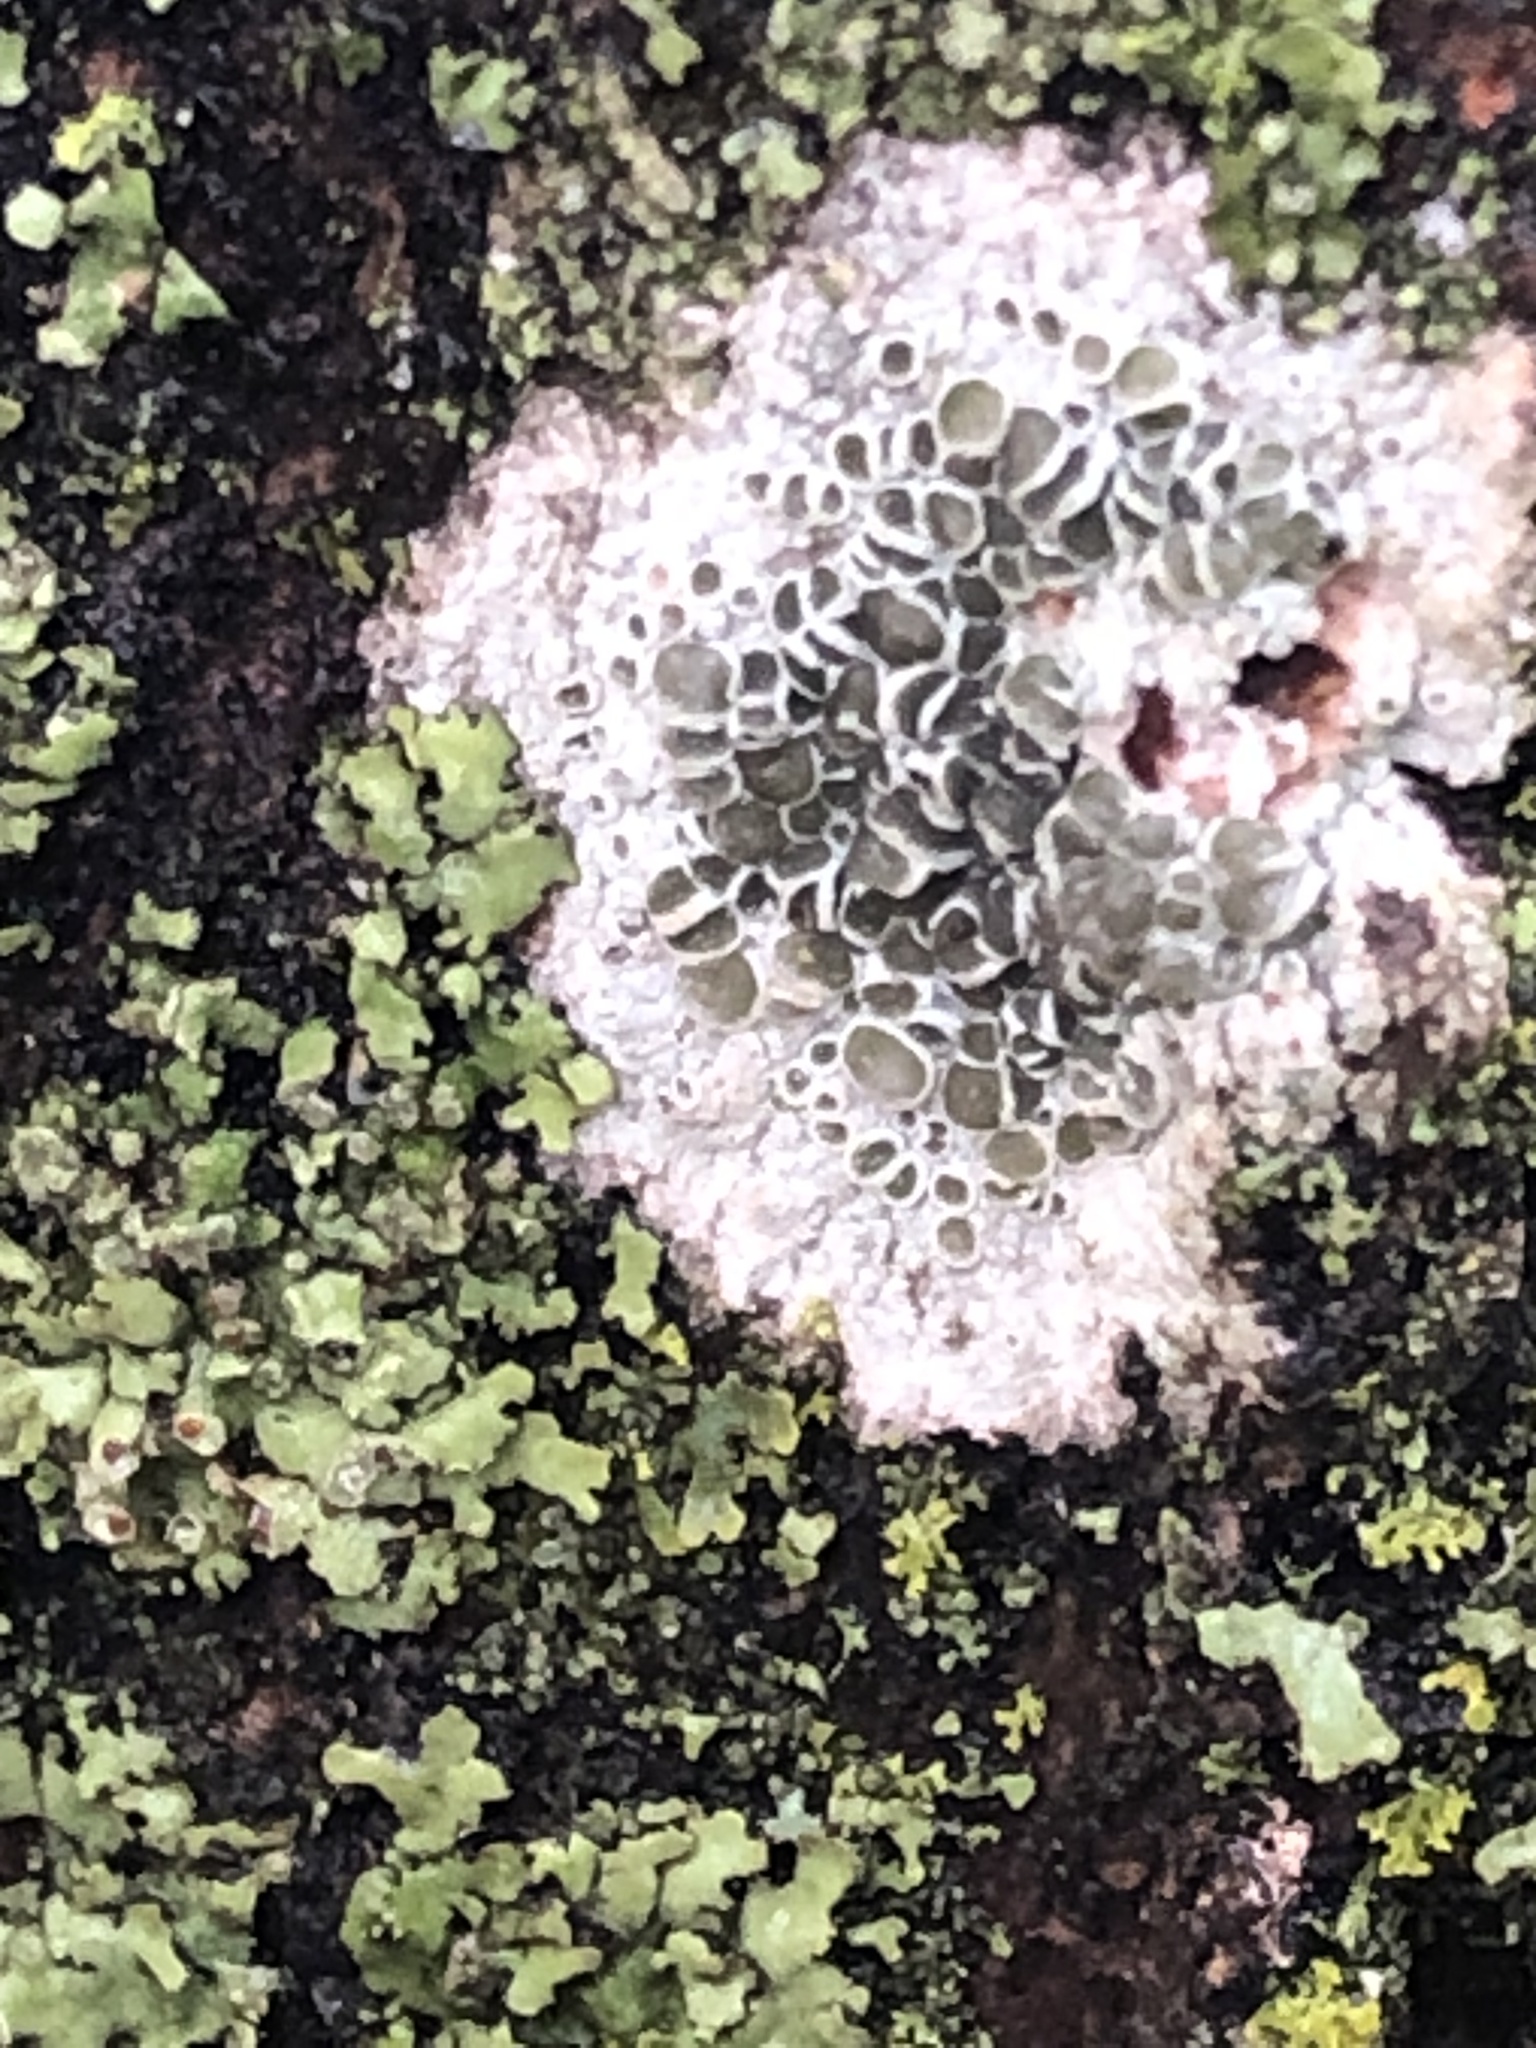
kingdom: Fungi
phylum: Ascomycota
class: Lecanoromycetes
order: Lecanorales
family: Lecanoraceae
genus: Lecanora
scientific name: Lecanora cenisia
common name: Smoky rim lichen
